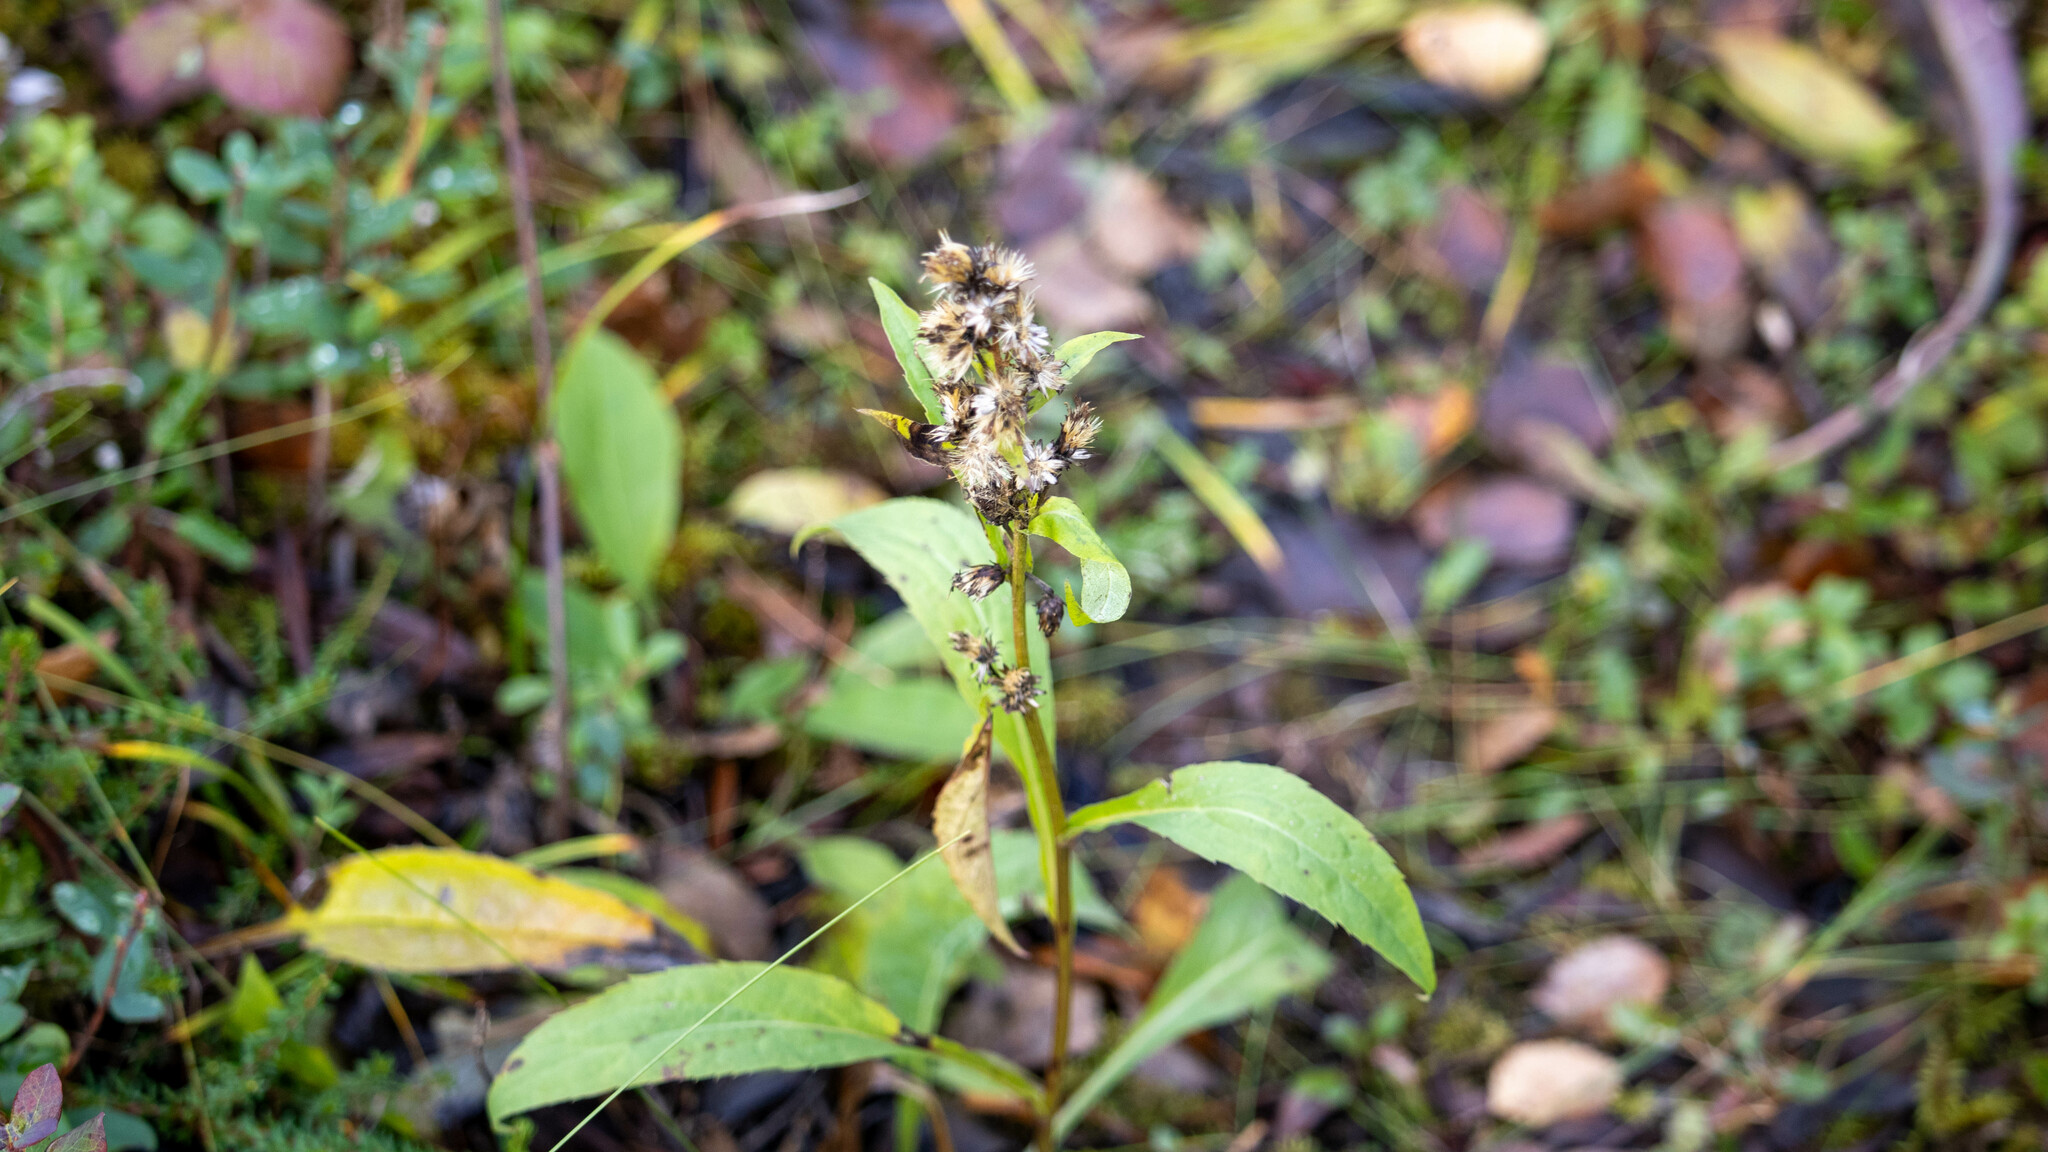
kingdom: Plantae
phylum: Tracheophyta
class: Magnoliopsida
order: Asterales
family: Asteraceae
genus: Solidago
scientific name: Solidago virgaurea
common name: Goldenrod
